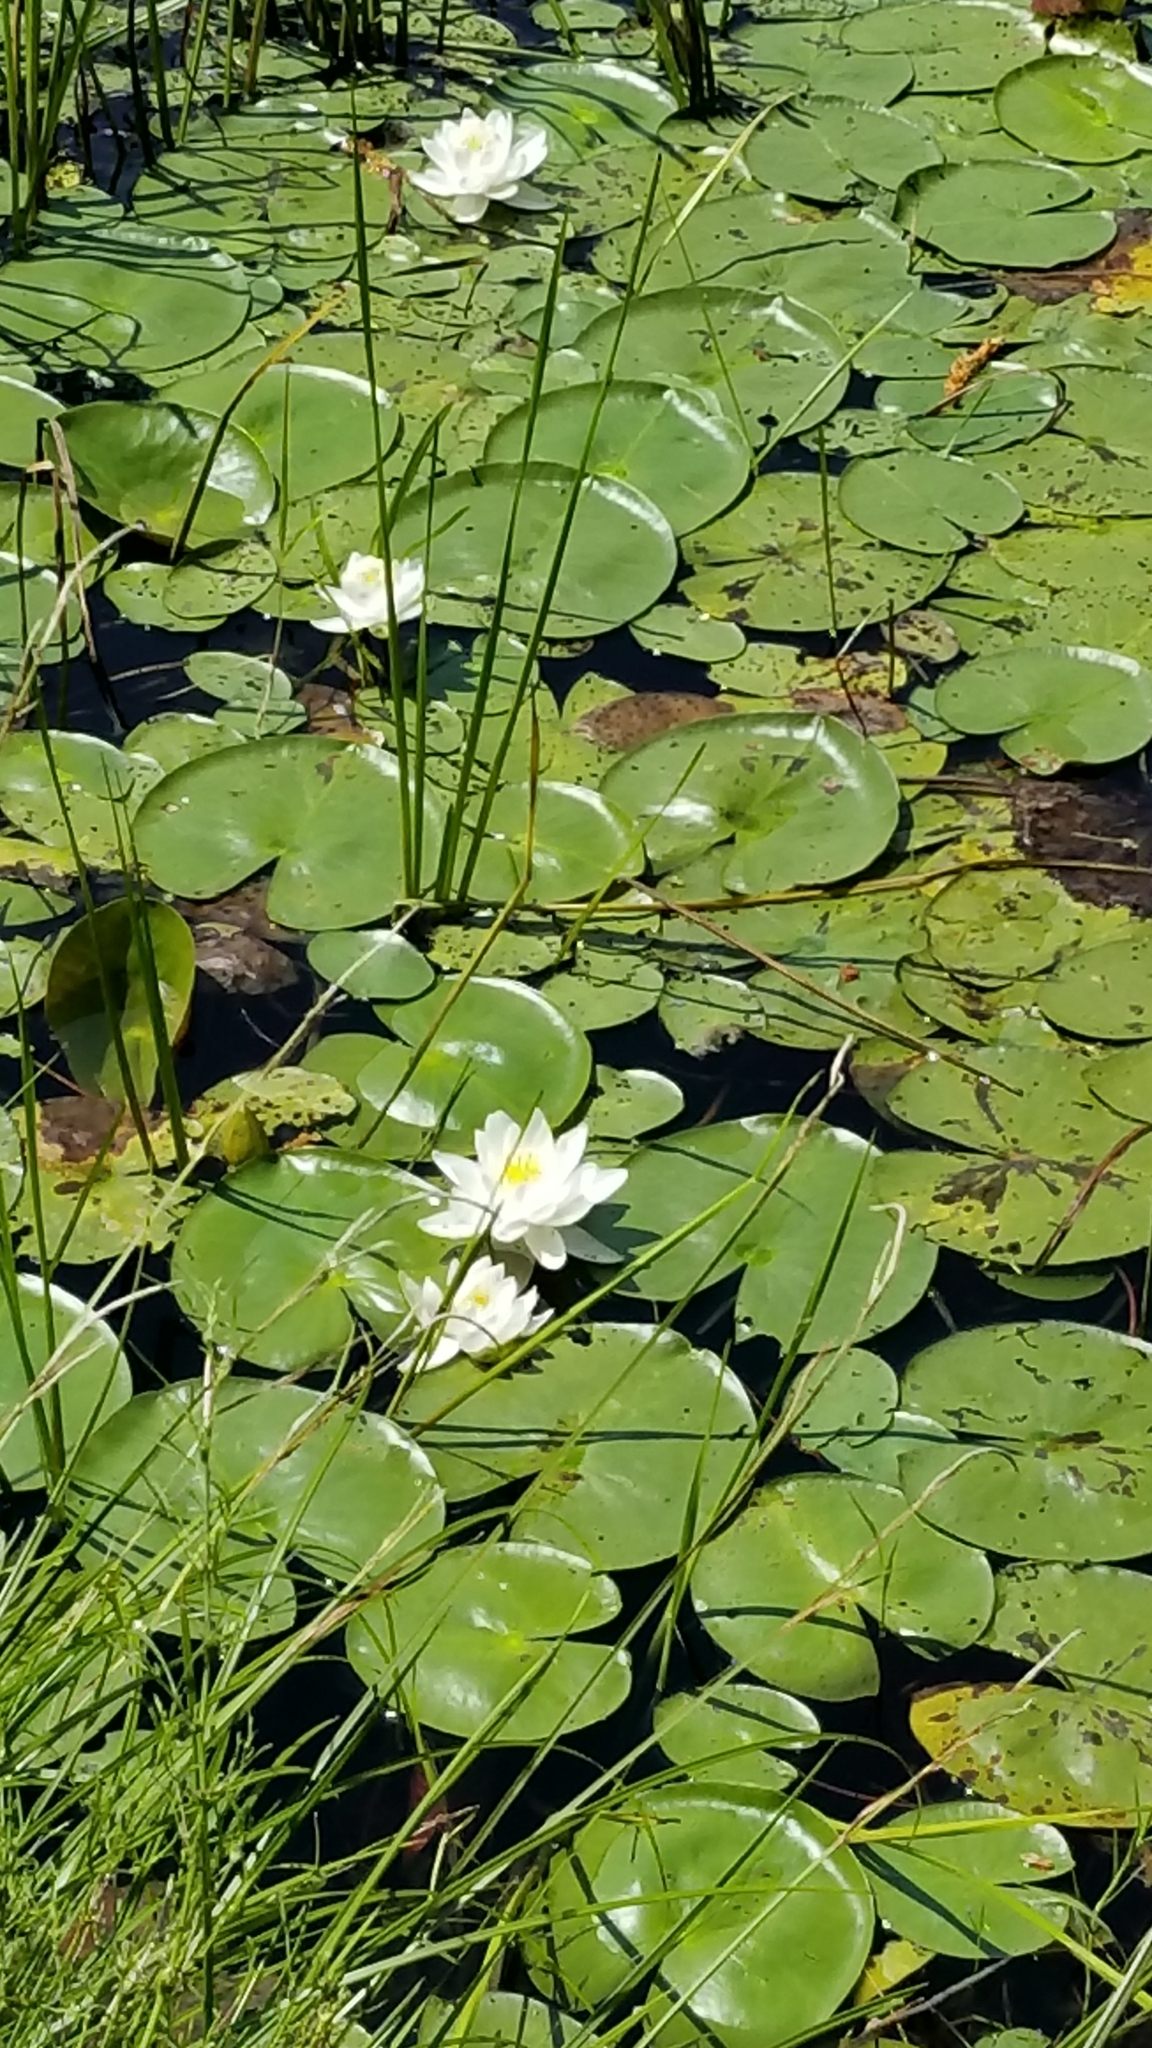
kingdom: Plantae
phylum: Tracheophyta
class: Magnoliopsida
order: Nymphaeales
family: Nymphaeaceae
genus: Nymphaea
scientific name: Nymphaea odorata
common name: Fragrant water-lily
